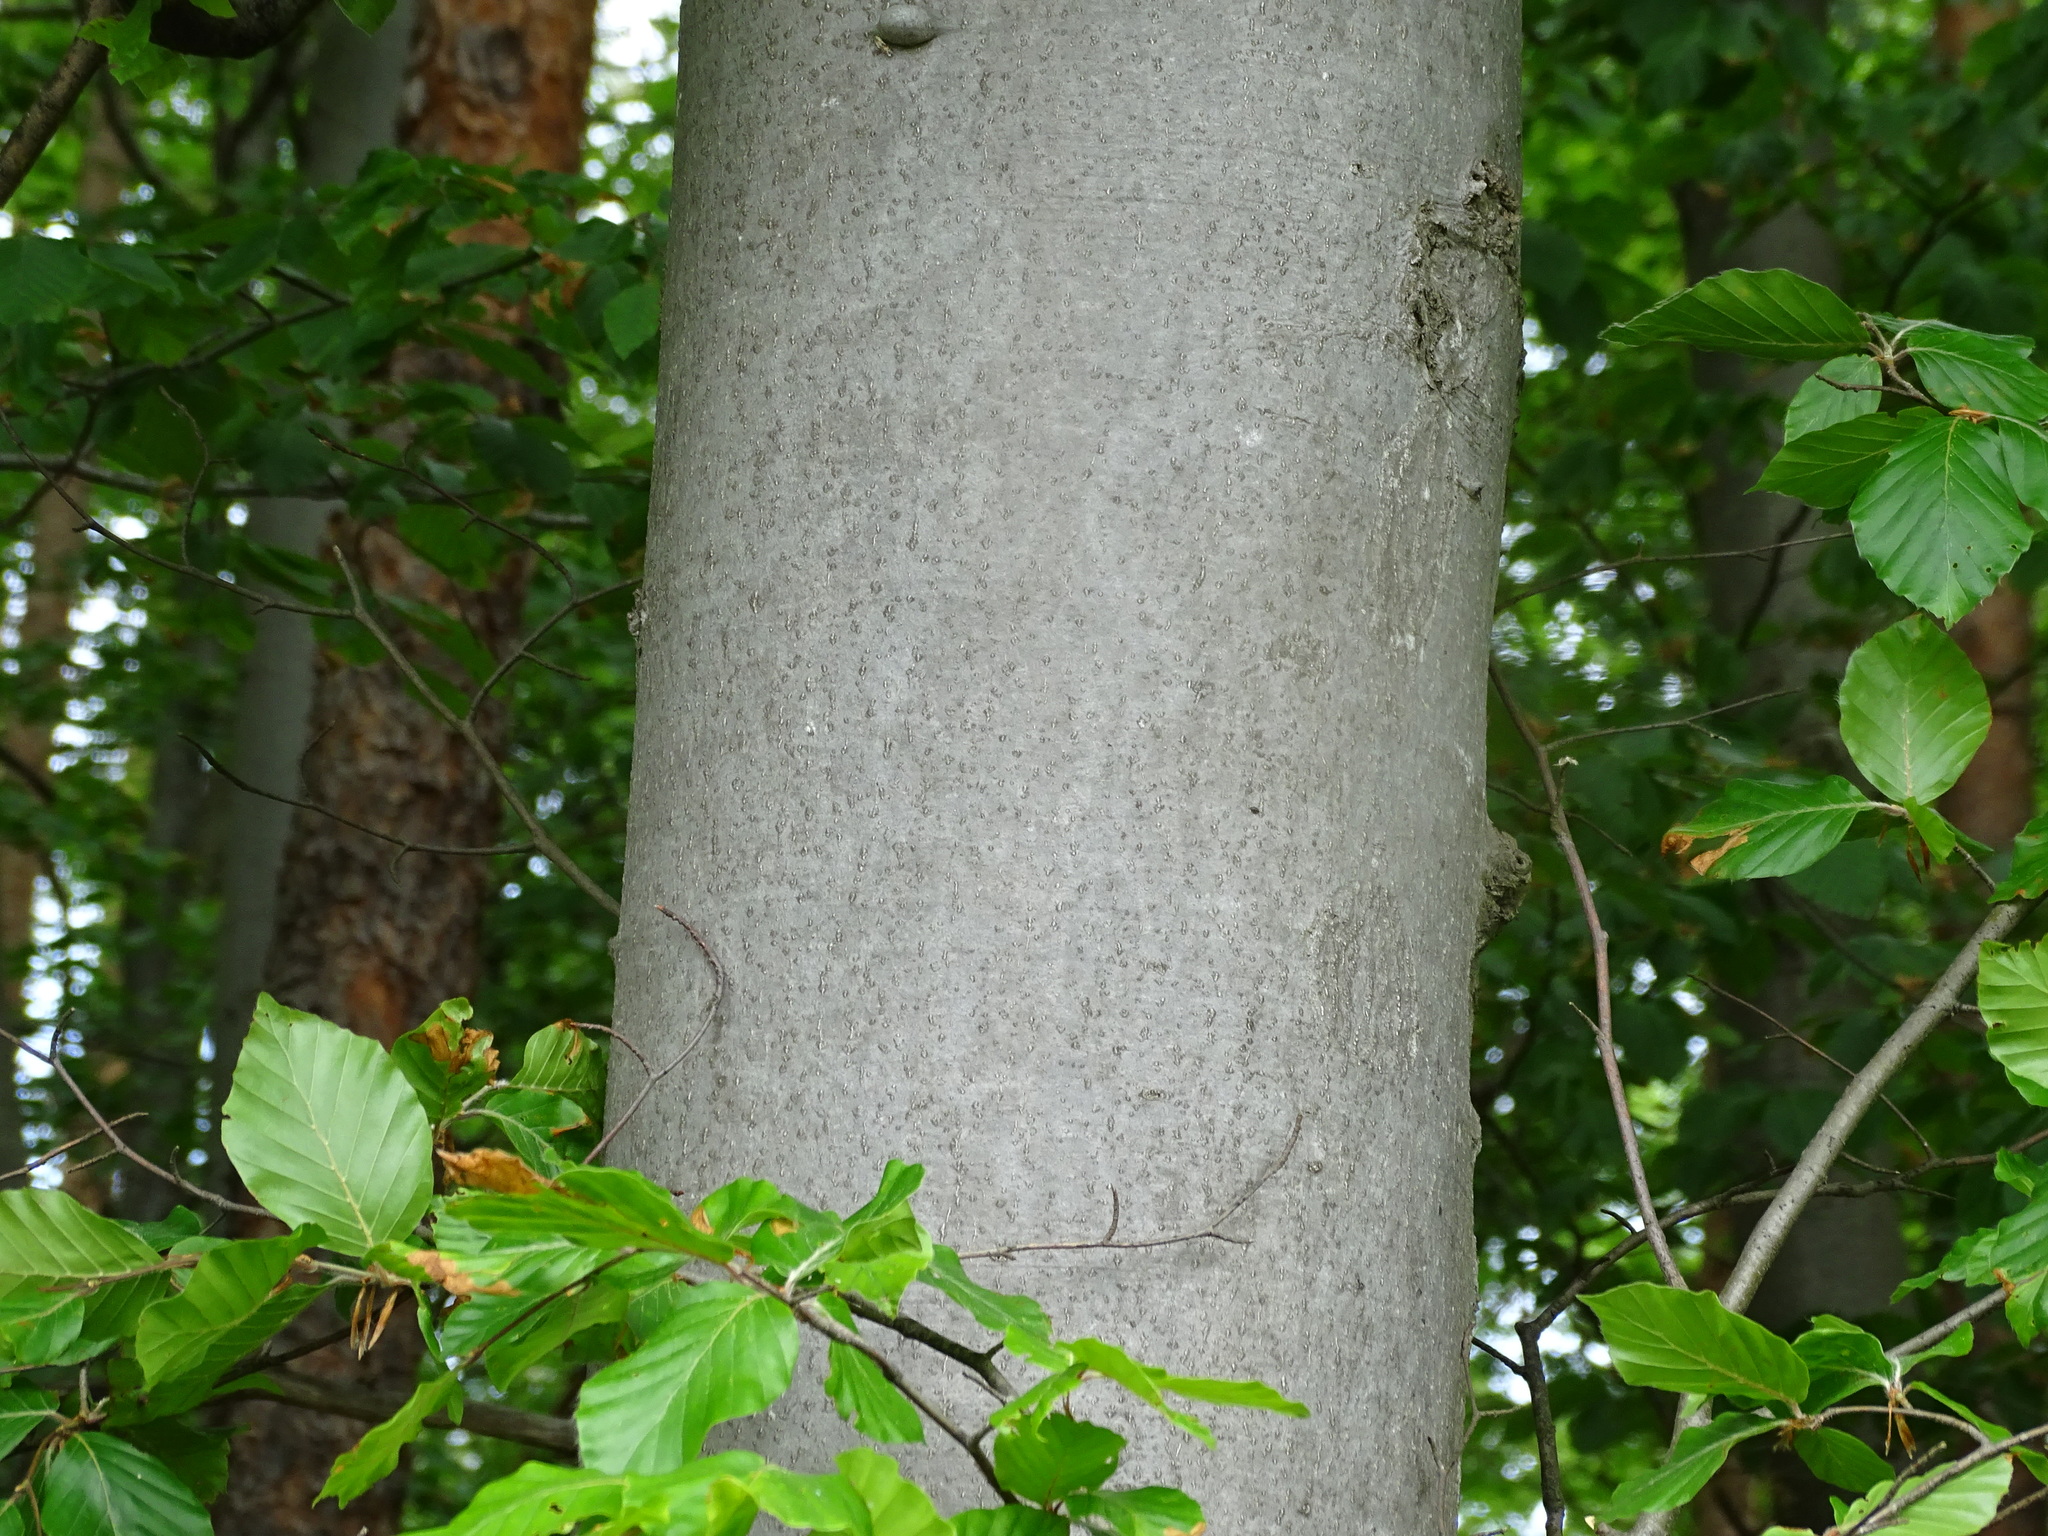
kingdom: Plantae
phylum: Tracheophyta
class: Magnoliopsida
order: Fagales
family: Fagaceae
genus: Fagus
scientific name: Fagus sylvatica
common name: Beech
